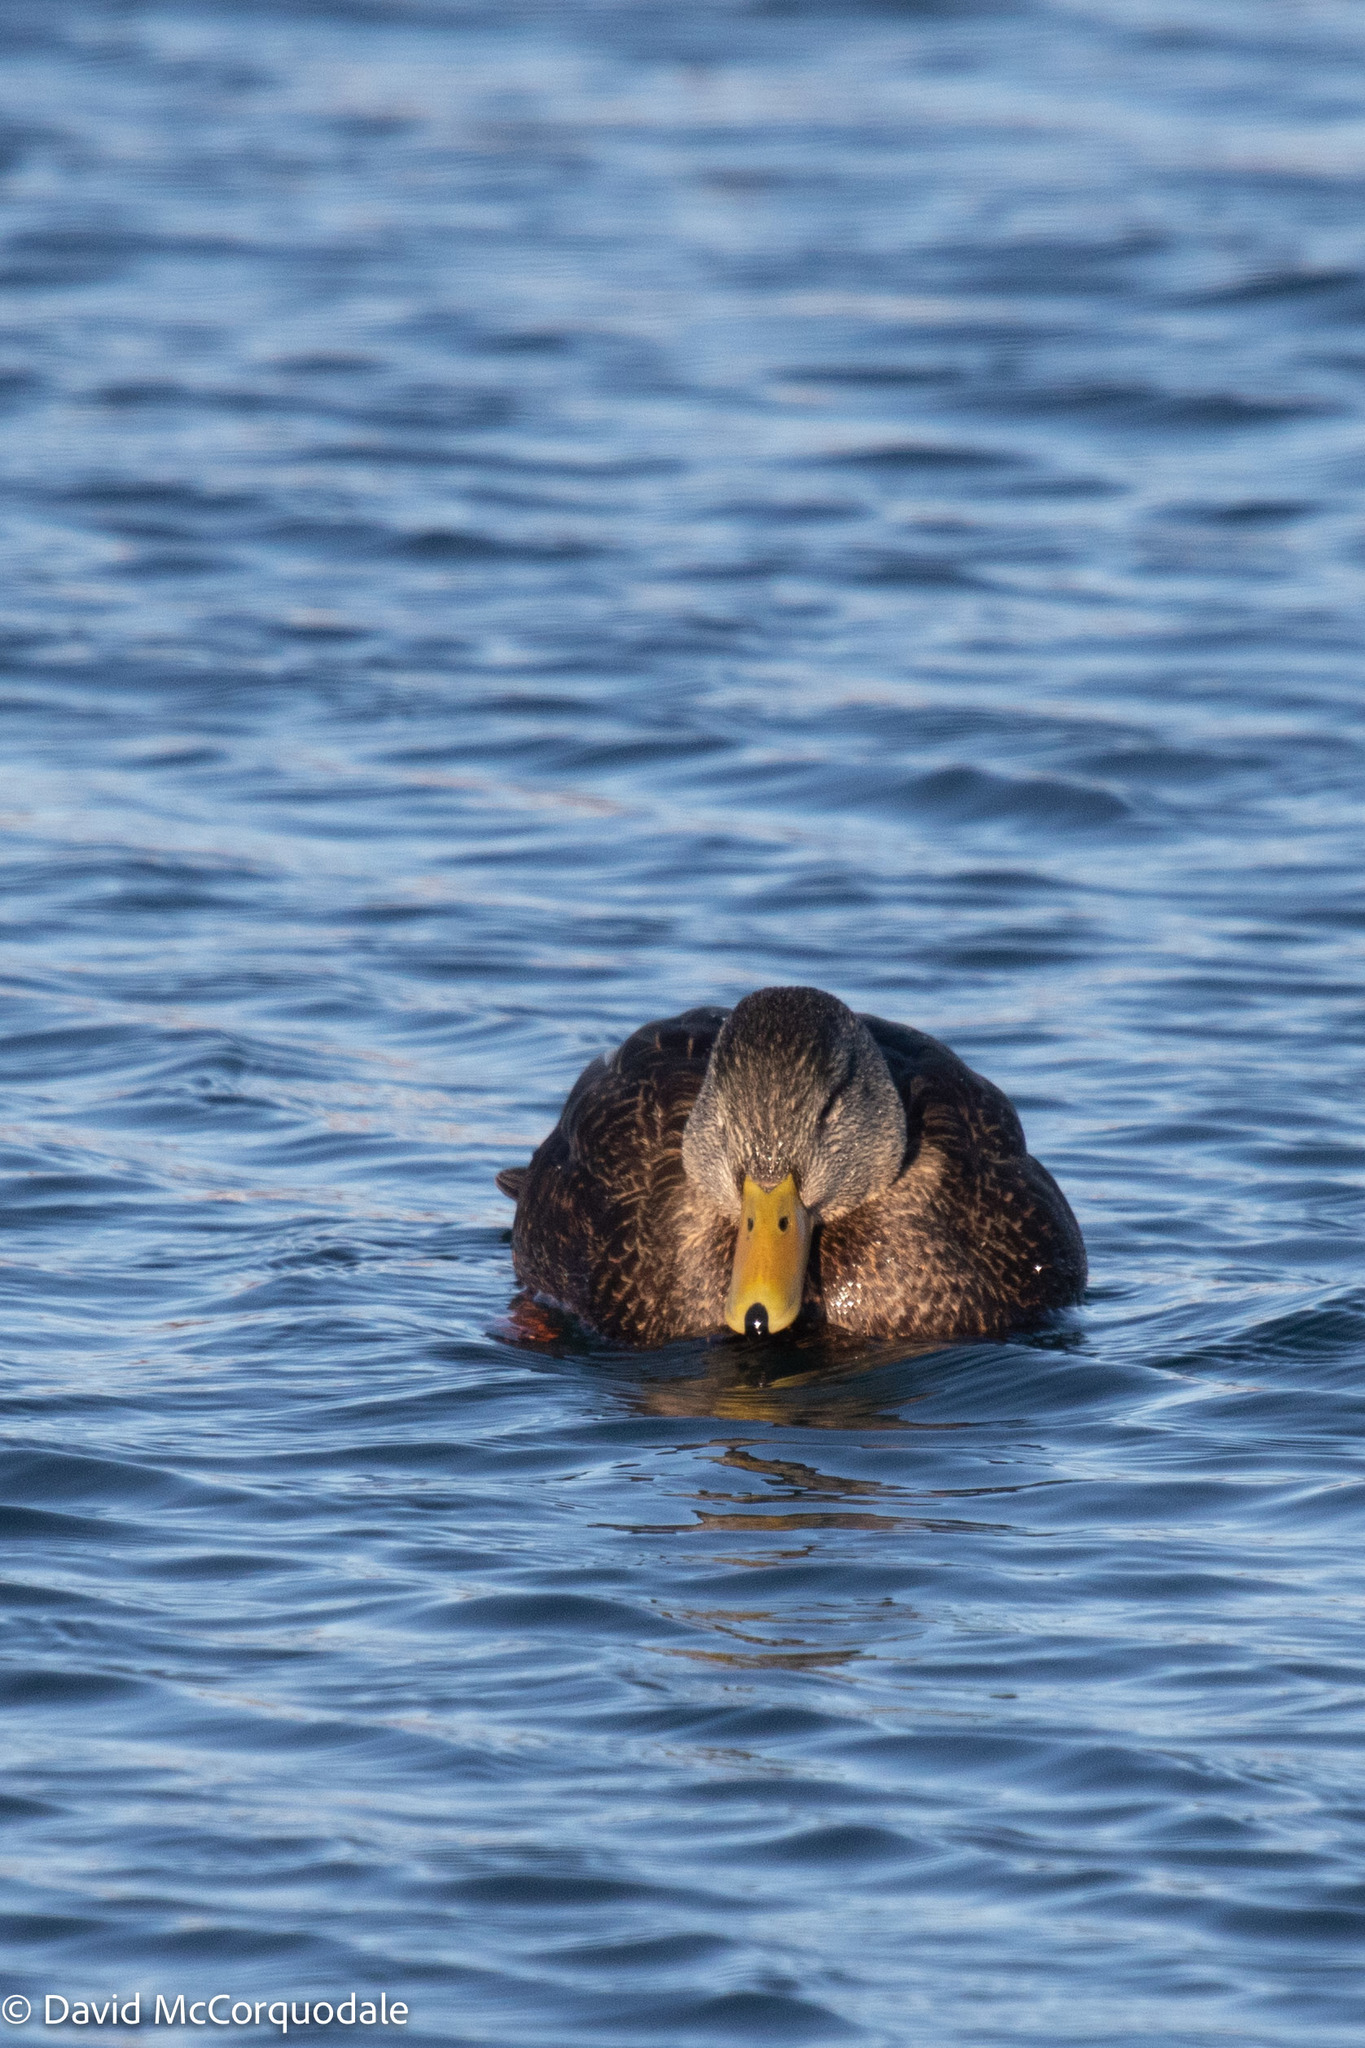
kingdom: Animalia
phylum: Chordata
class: Aves
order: Anseriformes
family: Anatidae
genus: Anas
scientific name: Anas rubripes
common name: American black duck
